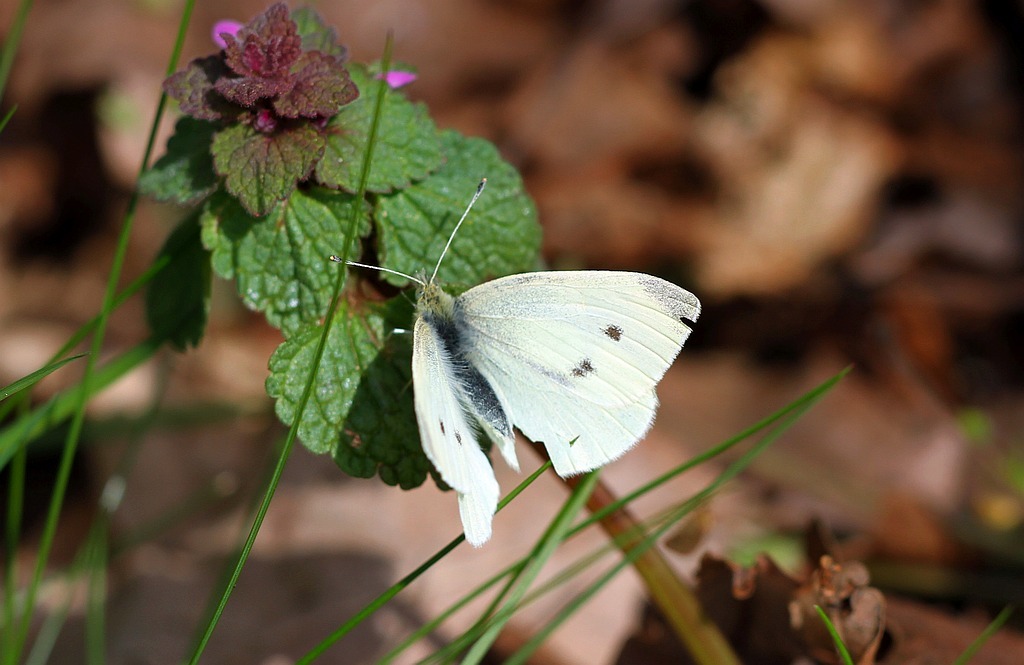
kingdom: Animalia
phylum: Arthropoda
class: Insecta
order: Lepidoptera
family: Pieridae
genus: Pieris
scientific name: Pieris rapae
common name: Small white
